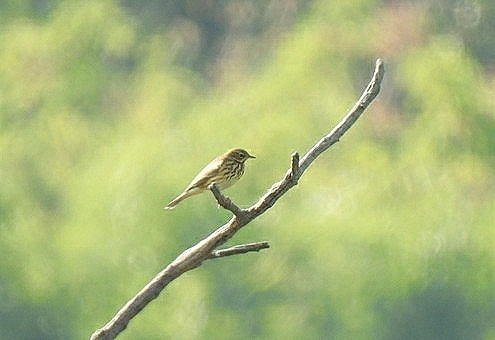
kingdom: Animalia
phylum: Chordata
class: Aves
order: Passeriformes
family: Motacillidae
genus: Anthus
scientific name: Anthus trivialis
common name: Tree pipit
